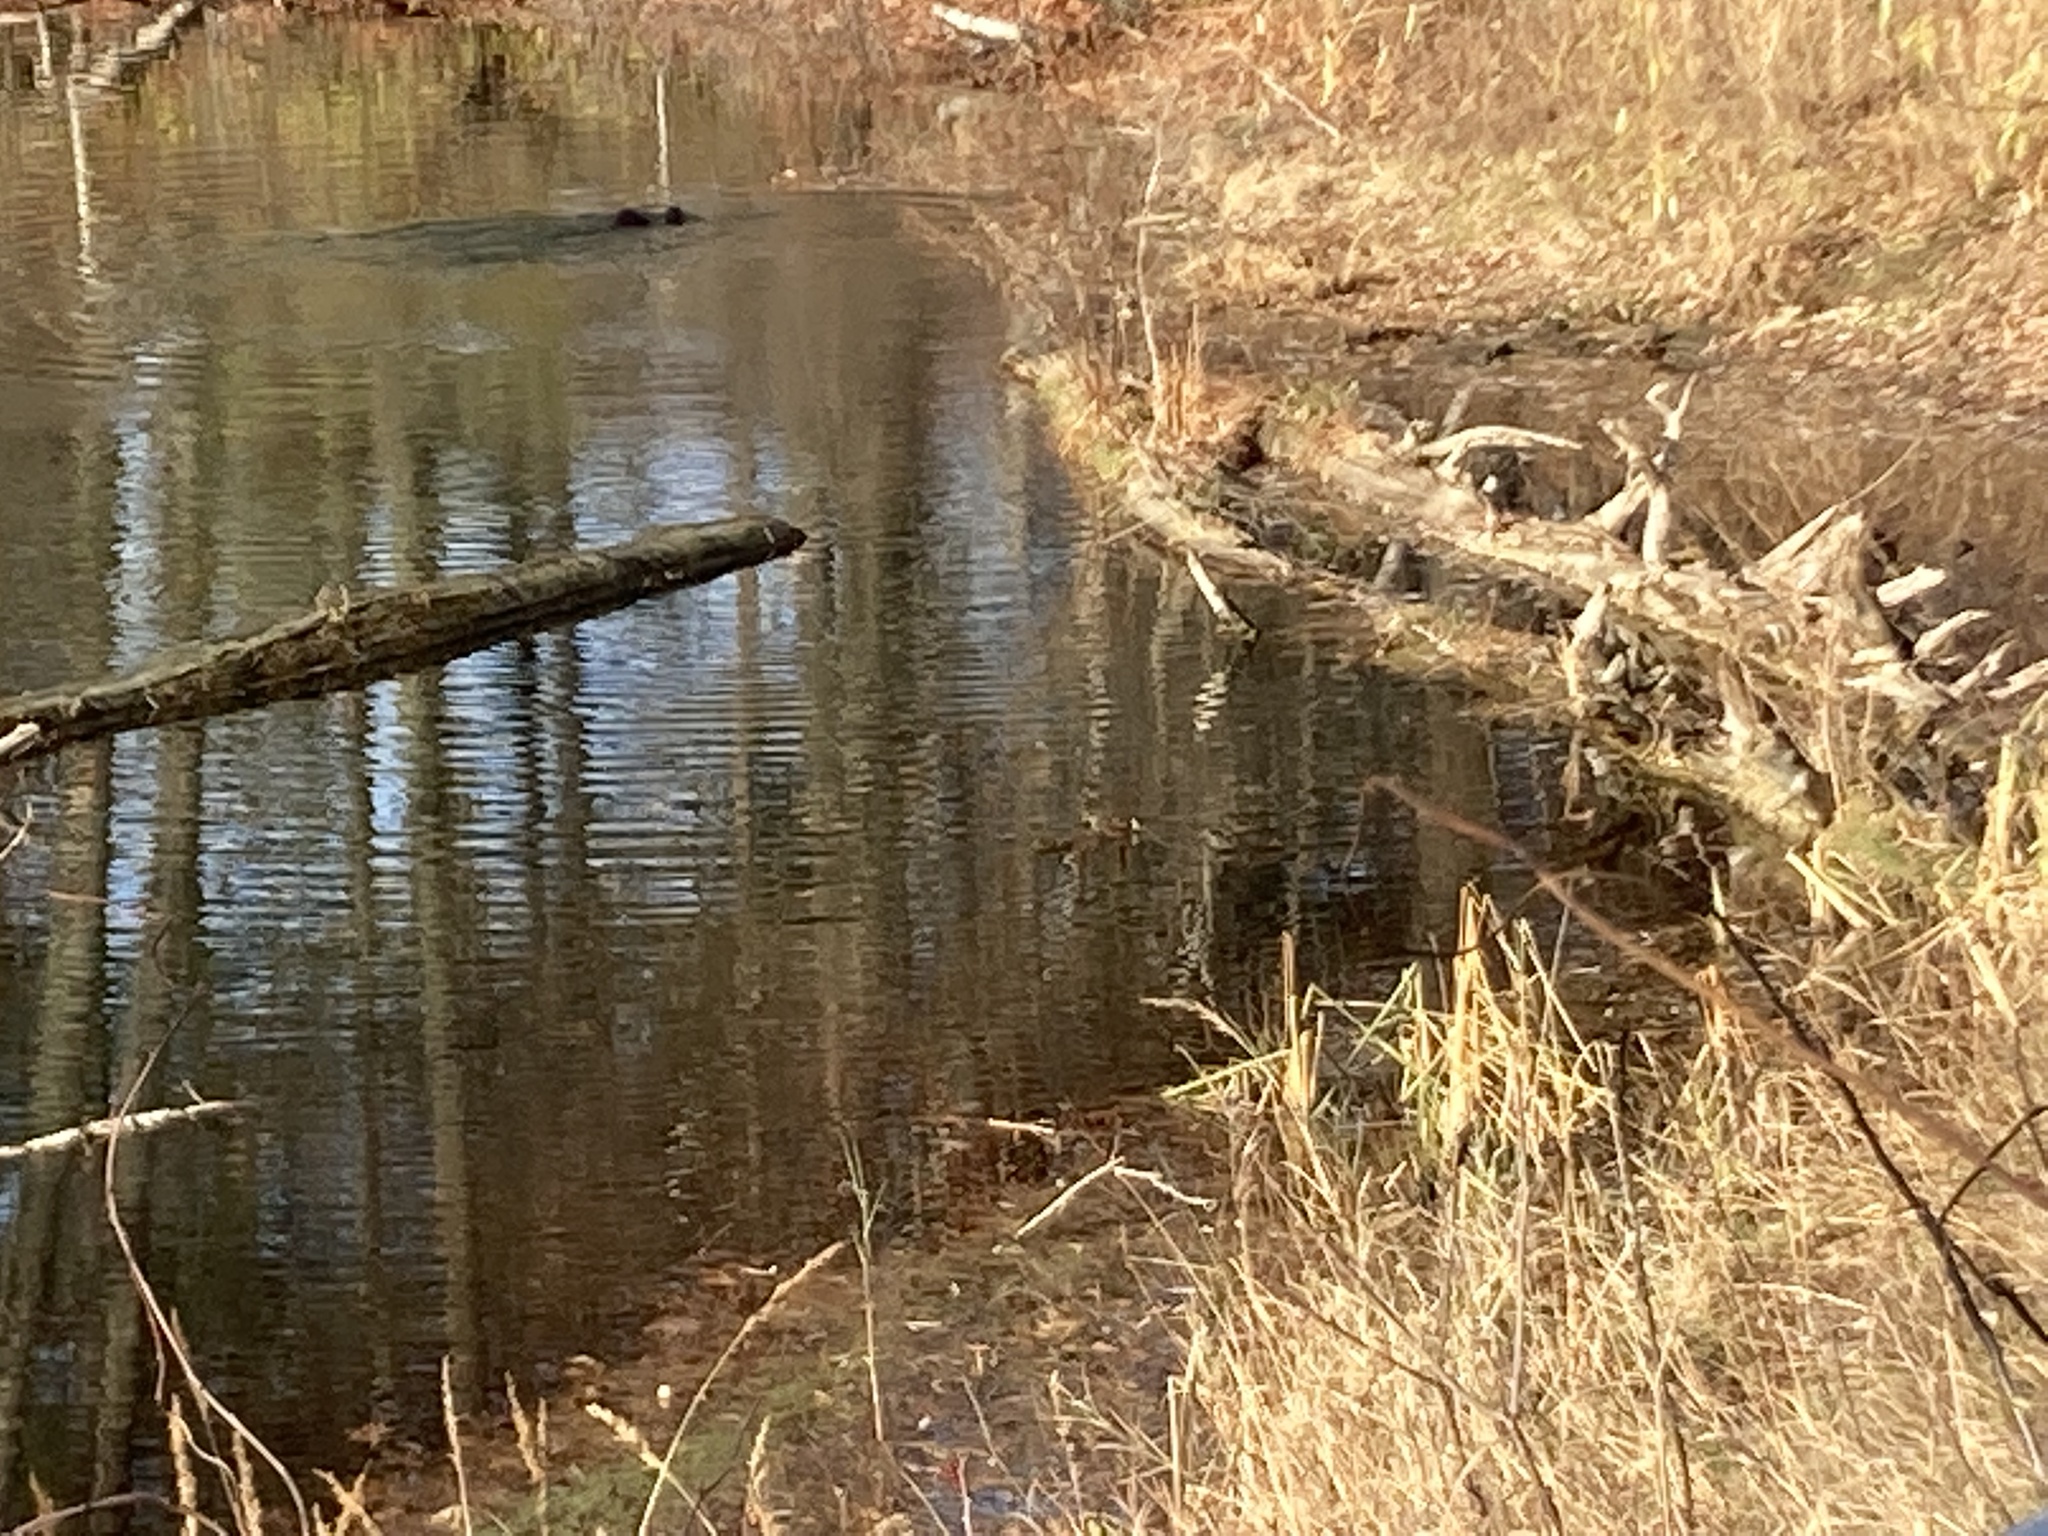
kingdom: Animalia
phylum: Chordata
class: Mammalia
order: Rodentia
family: Castoridae
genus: Castor
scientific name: Castor canadensis
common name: American beaver
